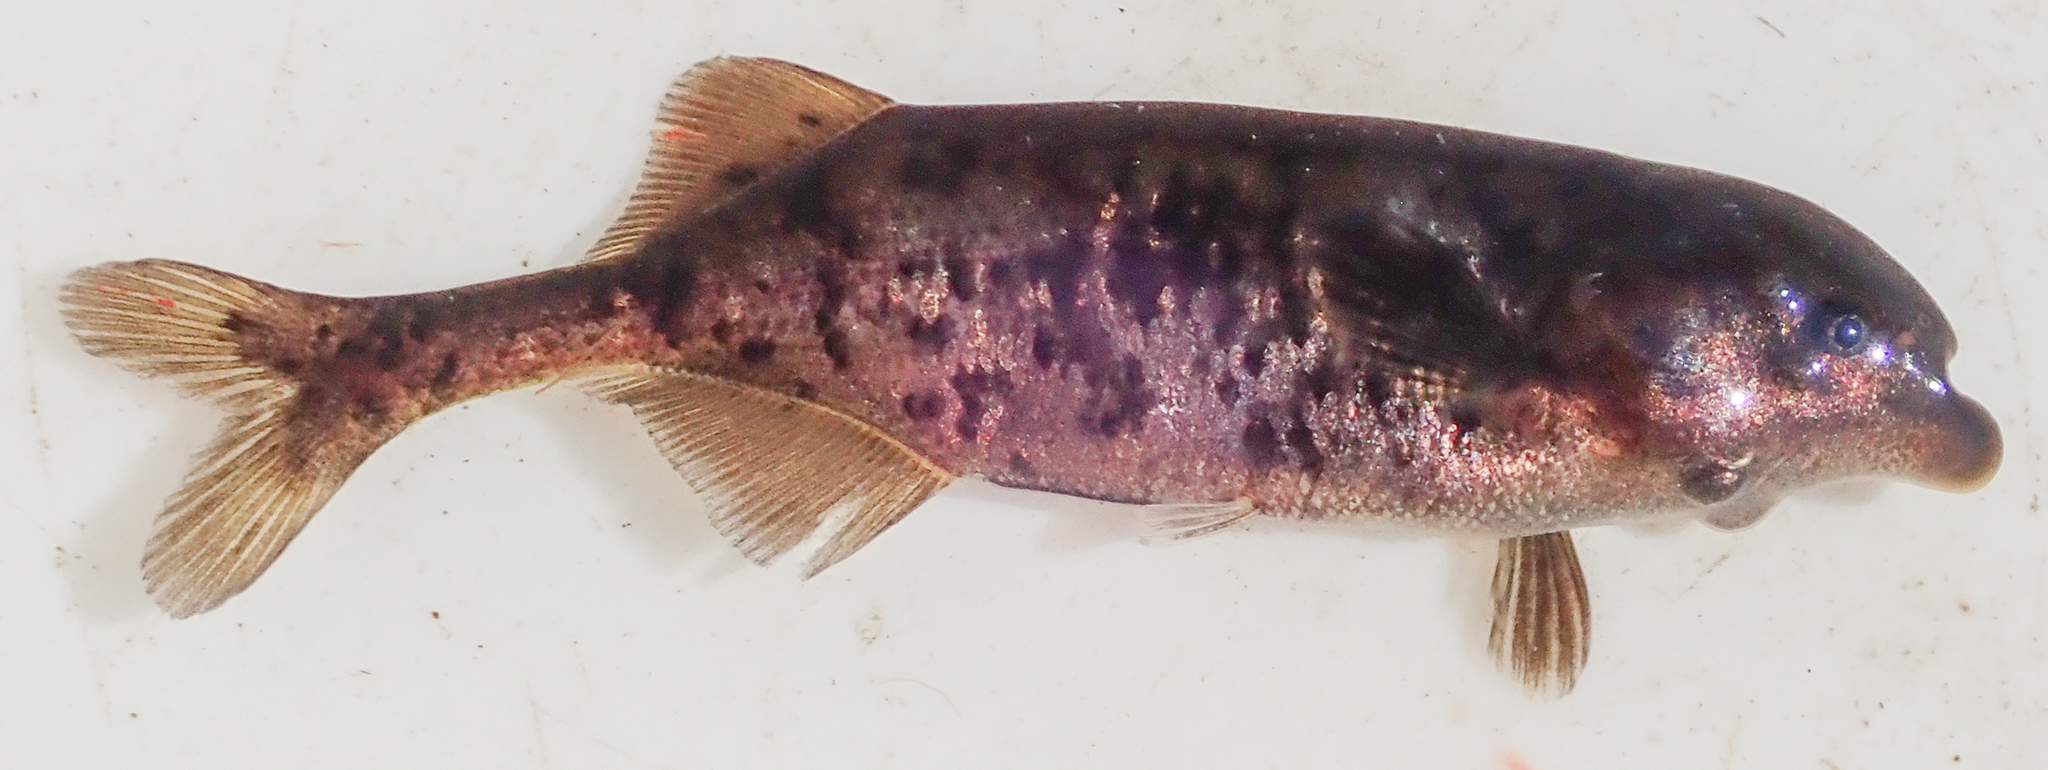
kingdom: Animalia
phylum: Chordata
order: Osteoglossiformes
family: Mormyridae
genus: Marcusenius
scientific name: Marcusenius altisambesi
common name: Bulldog
